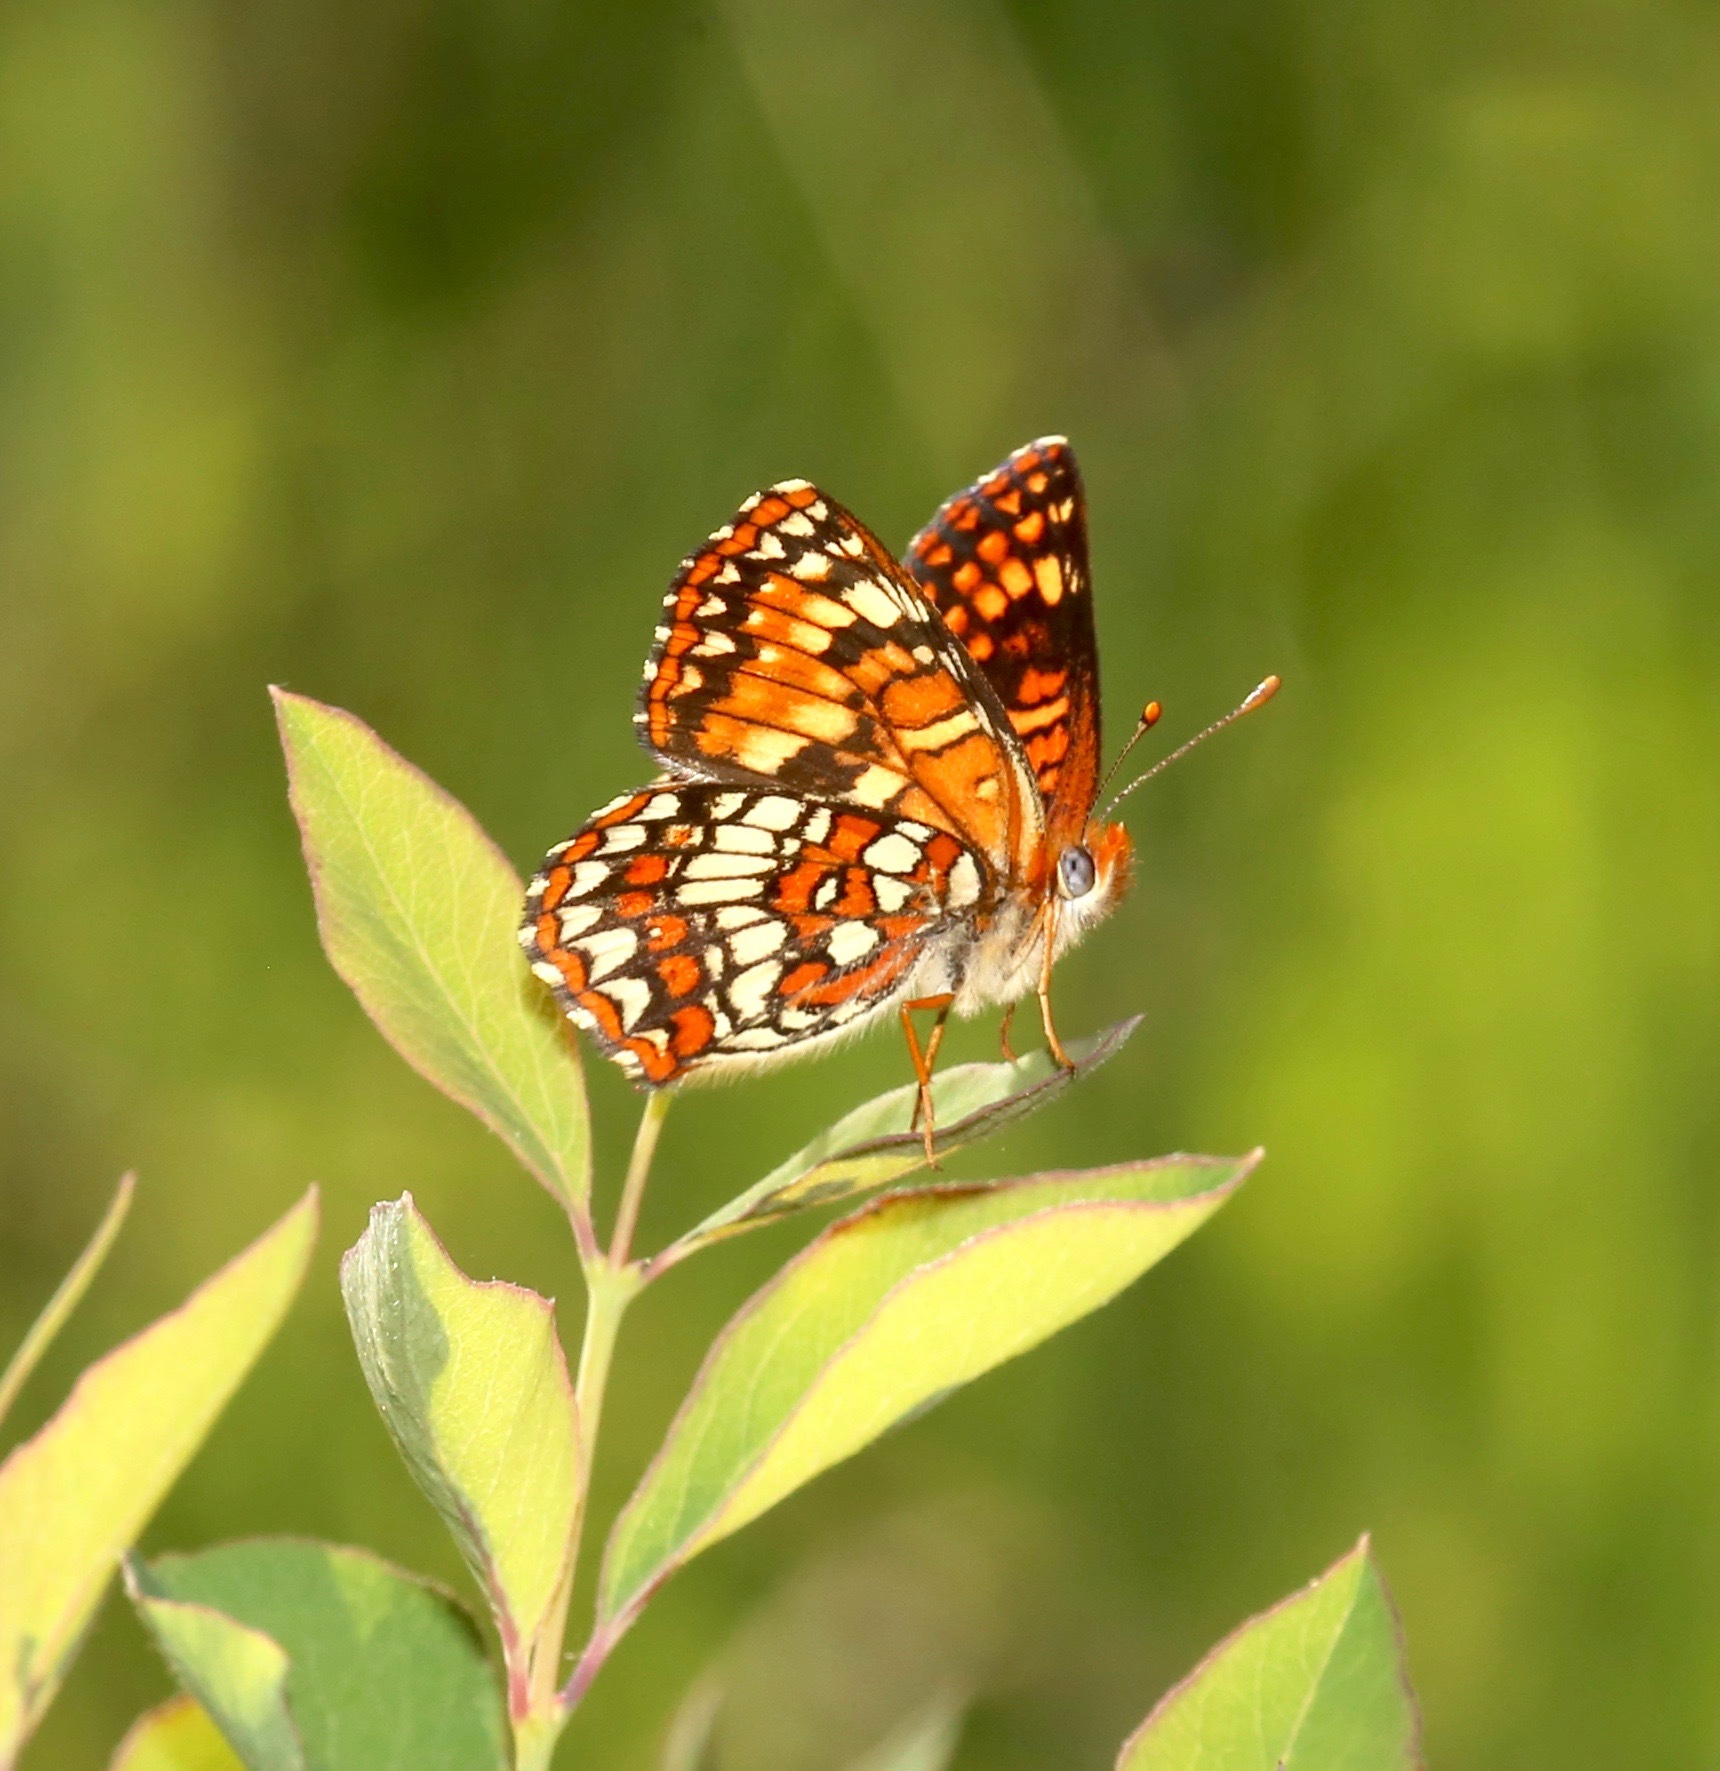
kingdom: Animalia
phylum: Arthropoda
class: Insecta
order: Lepidoptera
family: Nymphalidae
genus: Chlosyne
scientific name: Chlosyne palla
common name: Northern checkerspot
